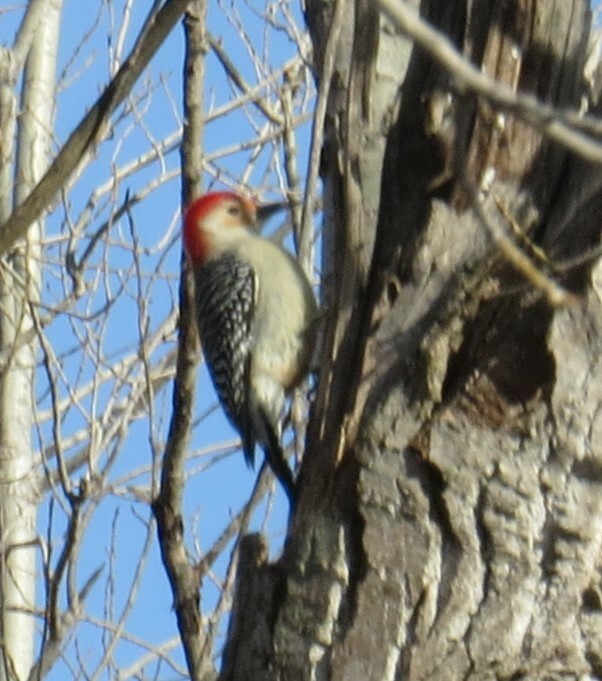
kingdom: Animalia
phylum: Chordata
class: Aves
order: Piciformes
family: Picidae
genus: Melanerpes
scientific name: Melanerpes carolinus
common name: Red-bellied woodpecker
